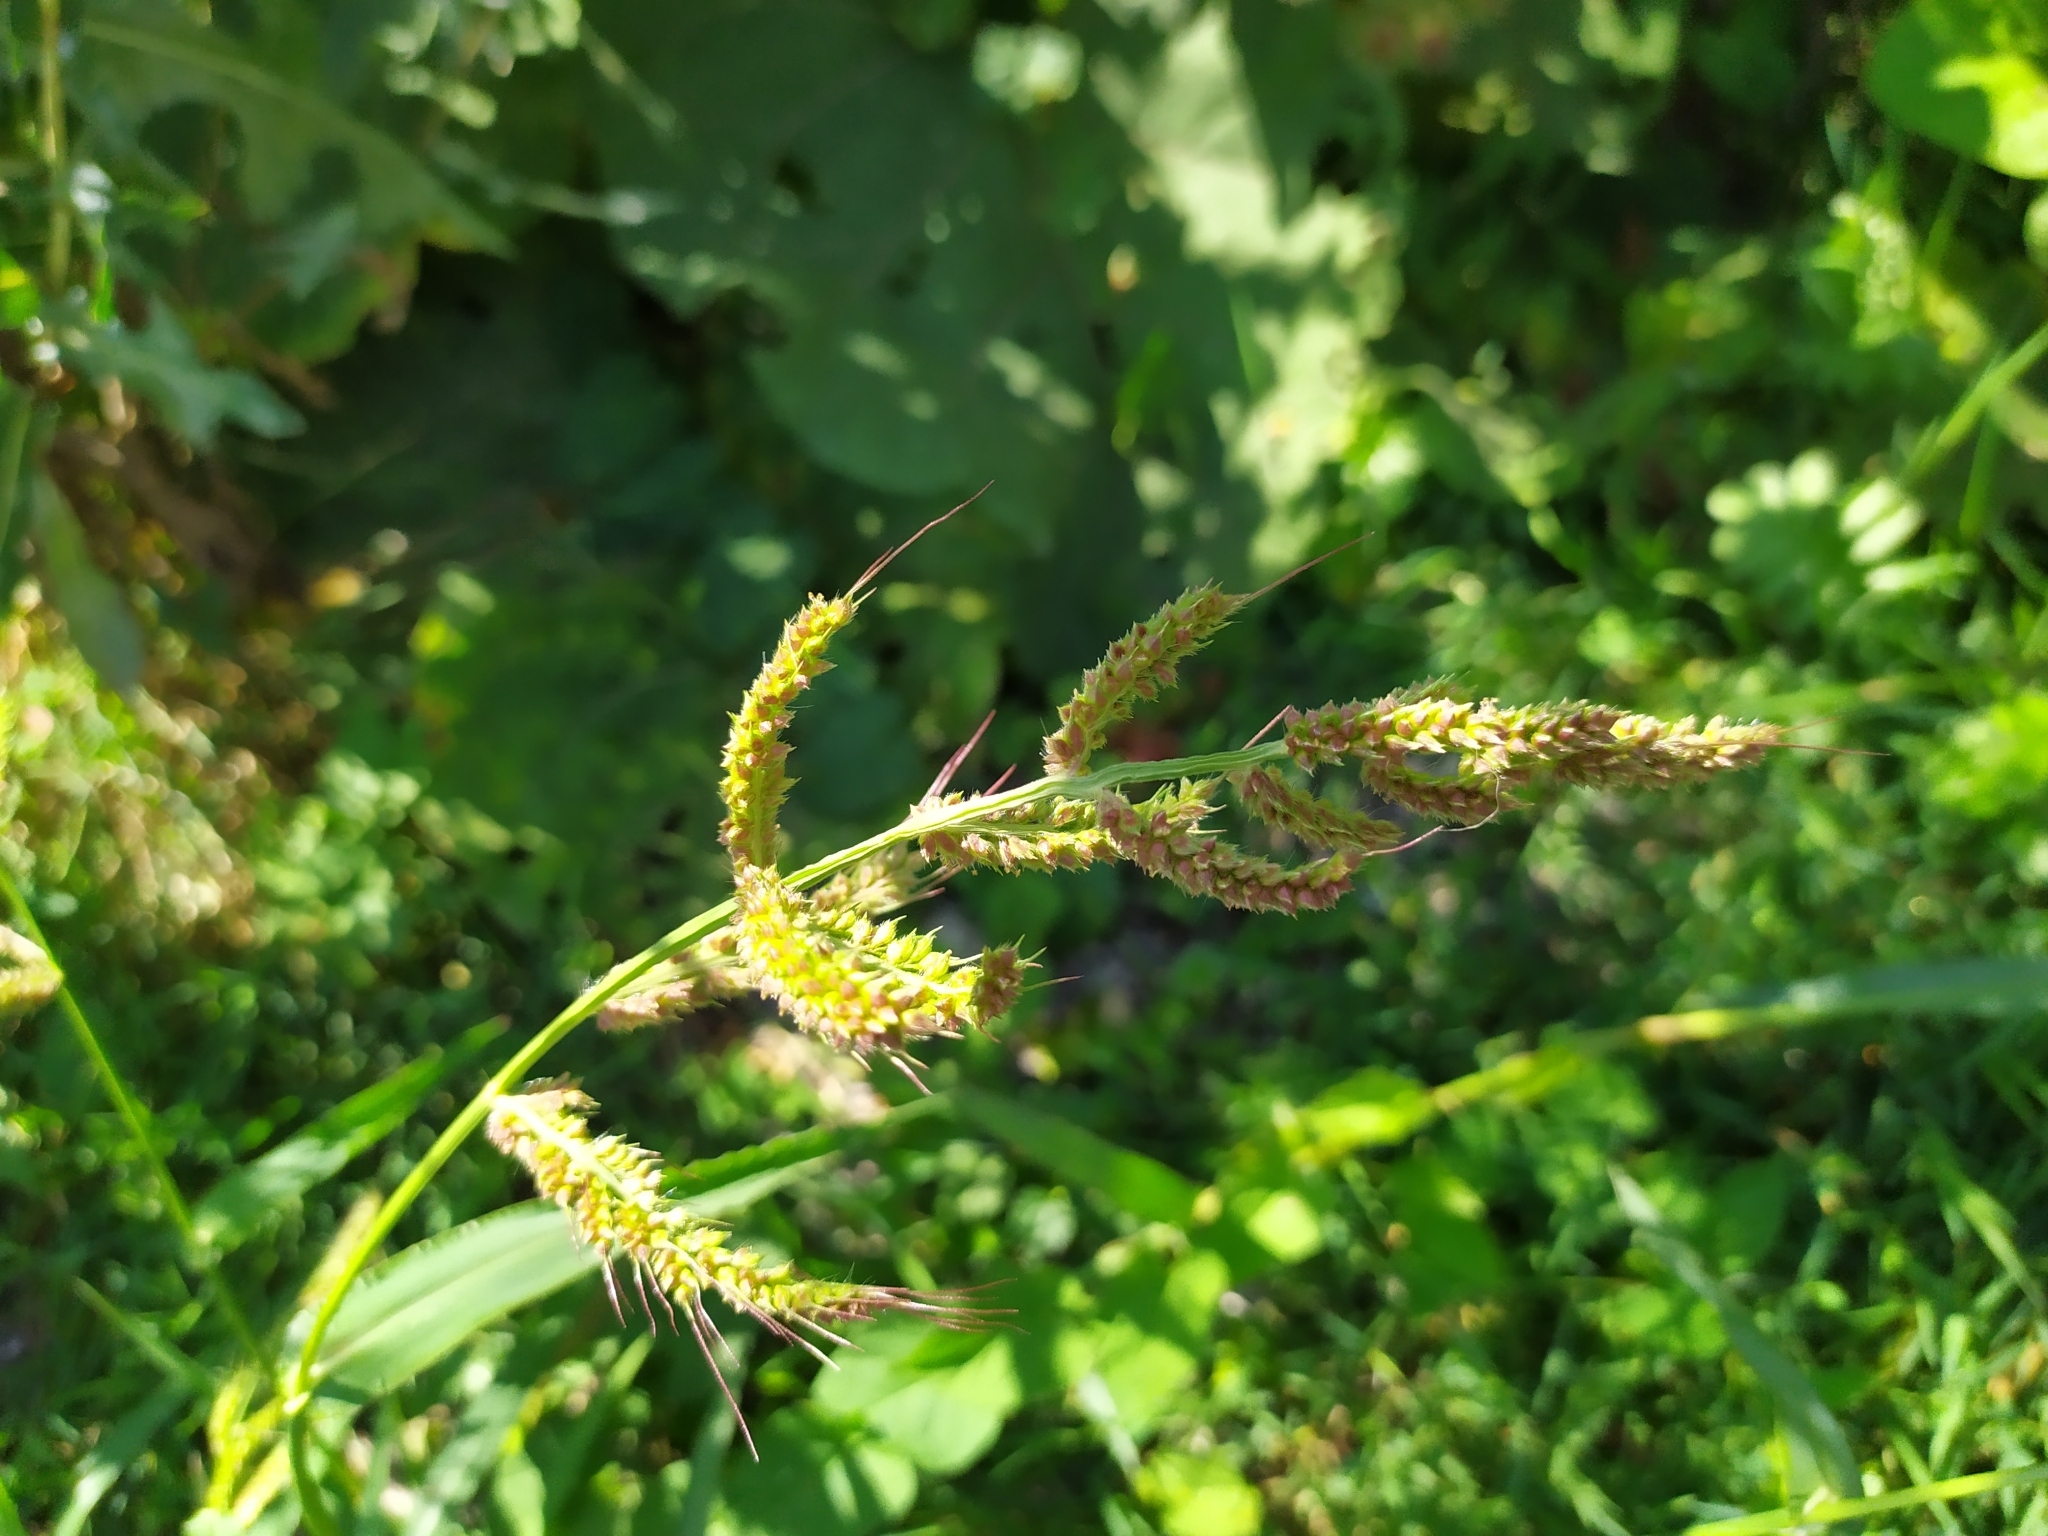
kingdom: Plantae
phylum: Tracheophyta
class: Liliopsida
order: Poales
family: Poaceae
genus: Echinochloa
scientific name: Echinochloa crus-galli
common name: Cockspur
